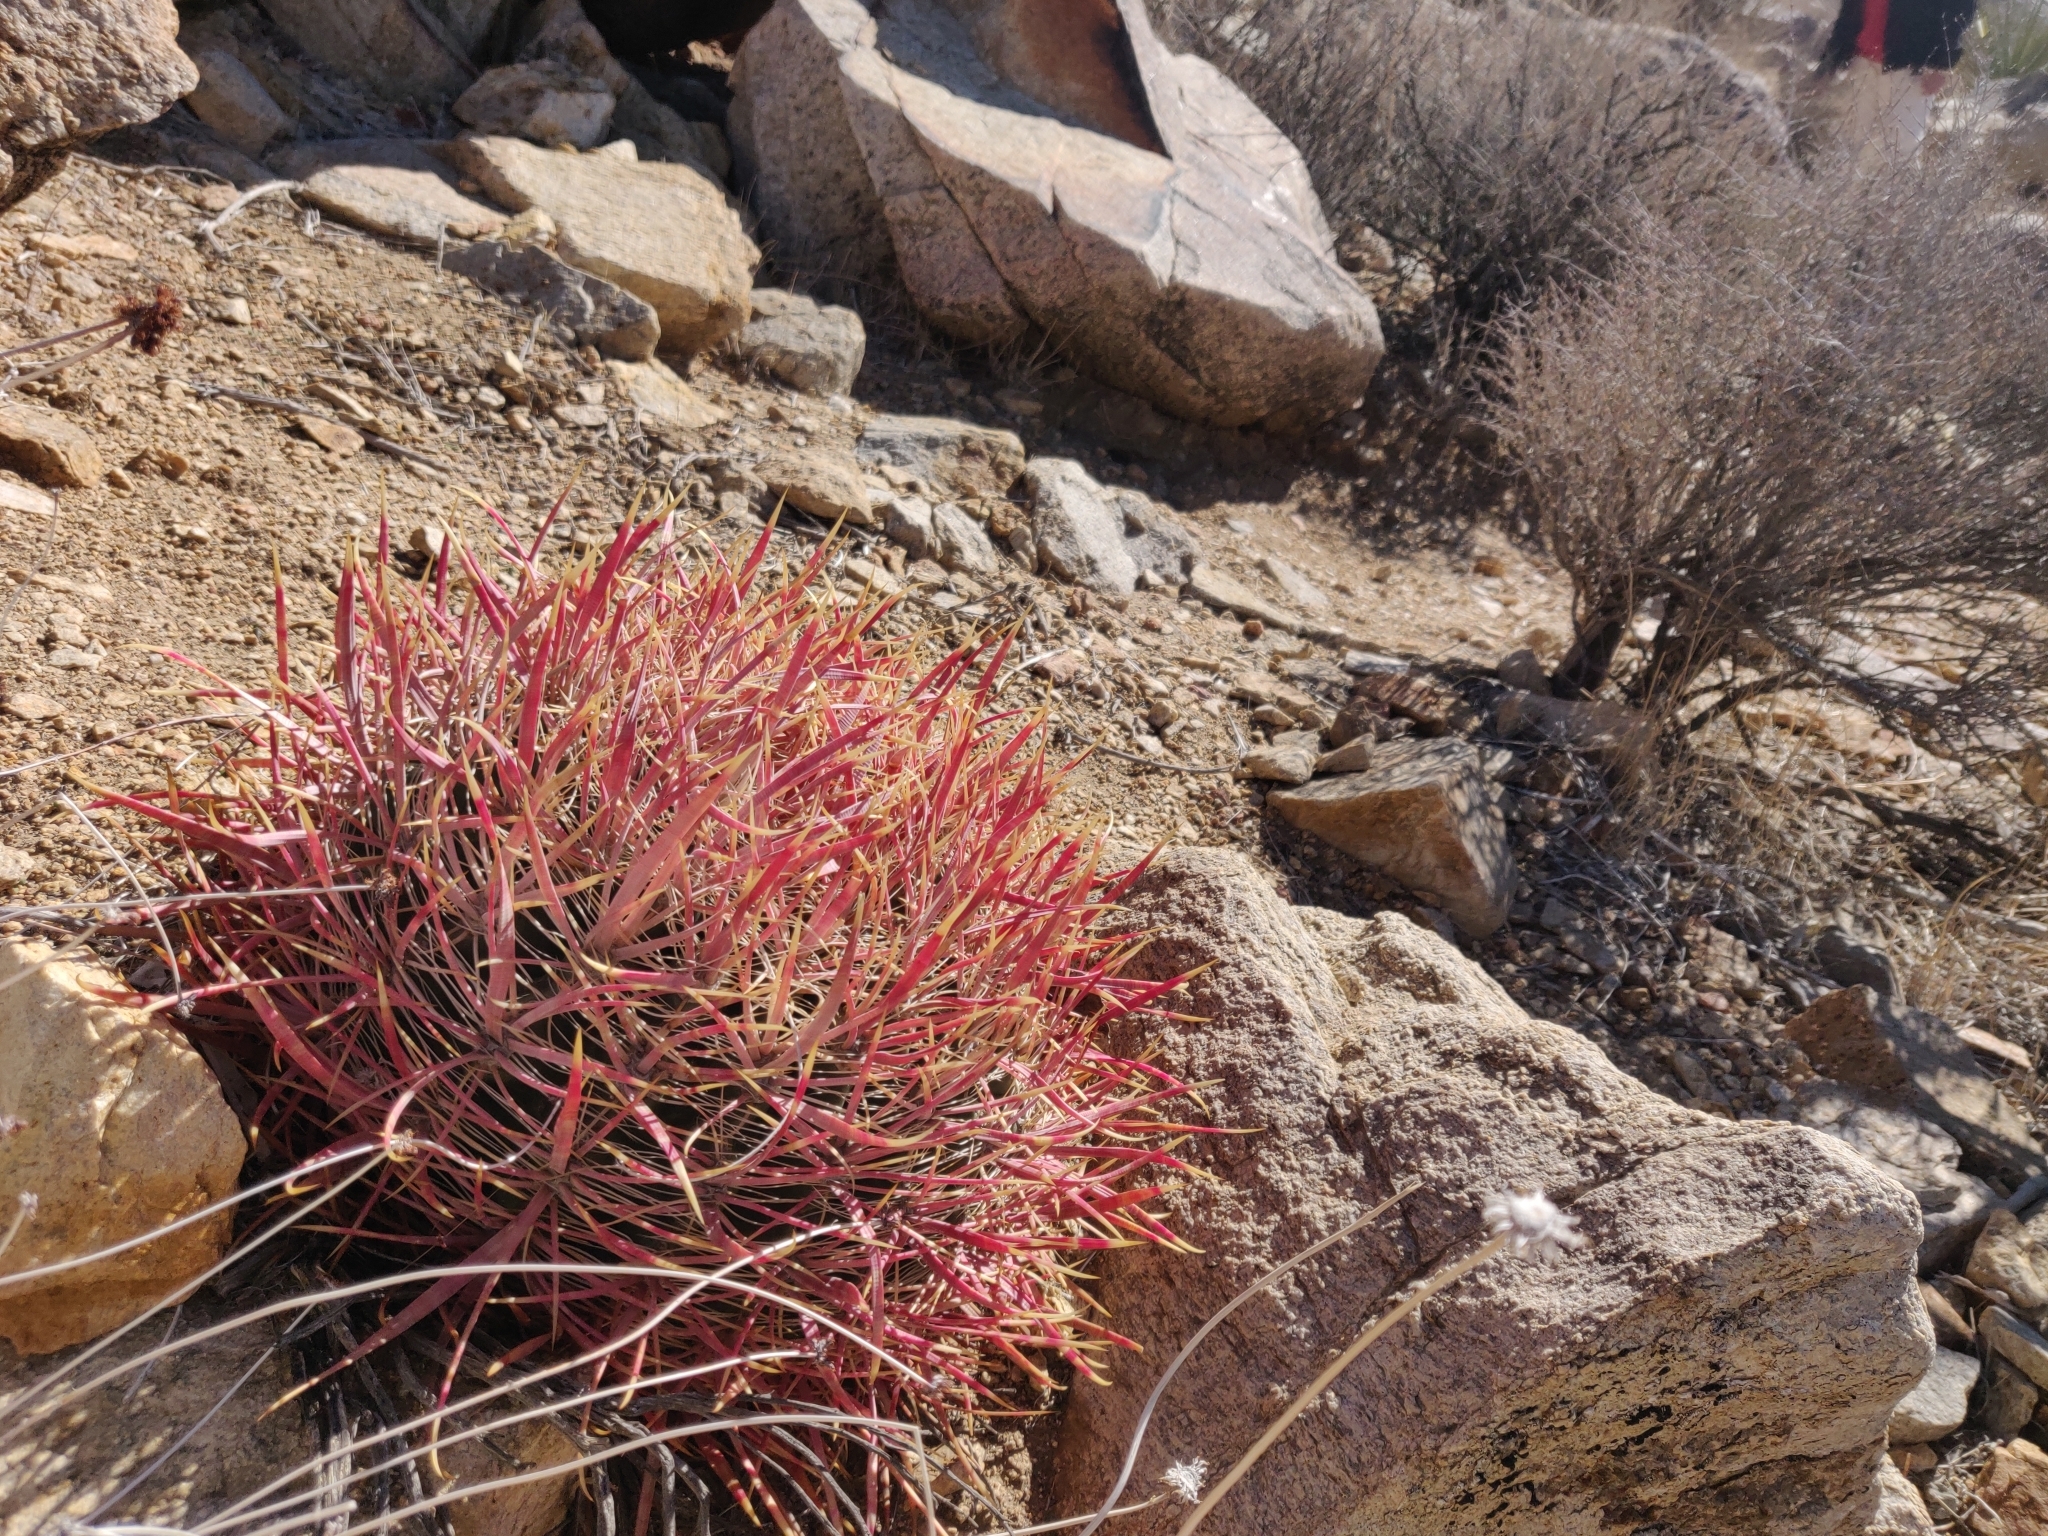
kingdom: Plantae
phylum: Tracheophyta
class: Magnoliopsida
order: Caryophyllales
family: Cactaceae
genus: Ferocactus
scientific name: Ferocactus cylindraceus
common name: California barrel cactus
